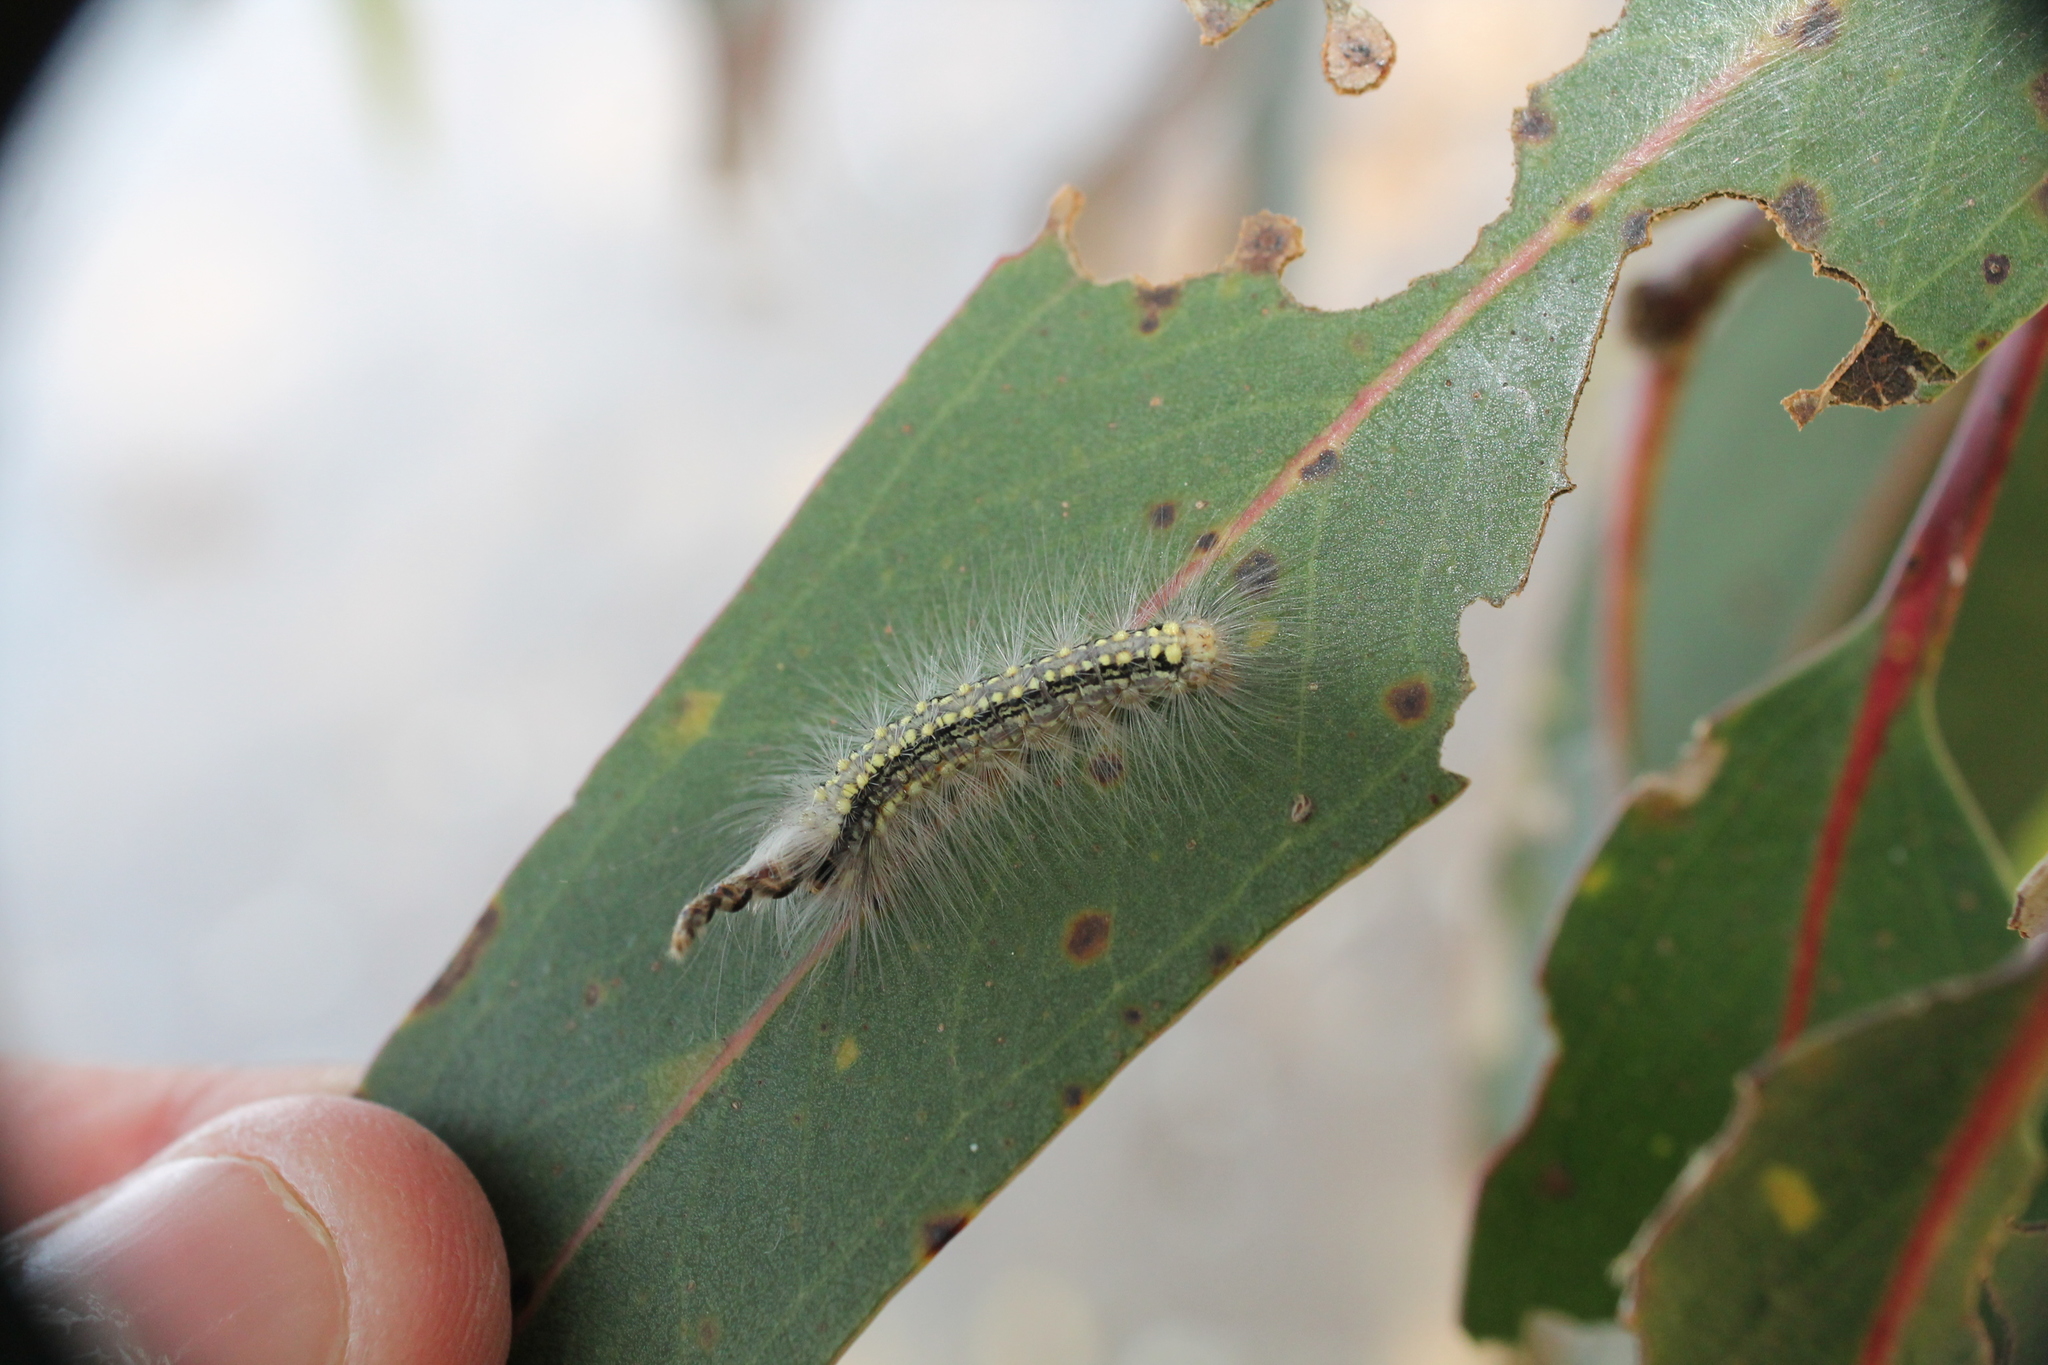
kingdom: Animalia
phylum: Arthropoda
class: Insecta
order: Lepidoptera
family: Nolidae
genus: Uraba
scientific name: Uraba lugens
